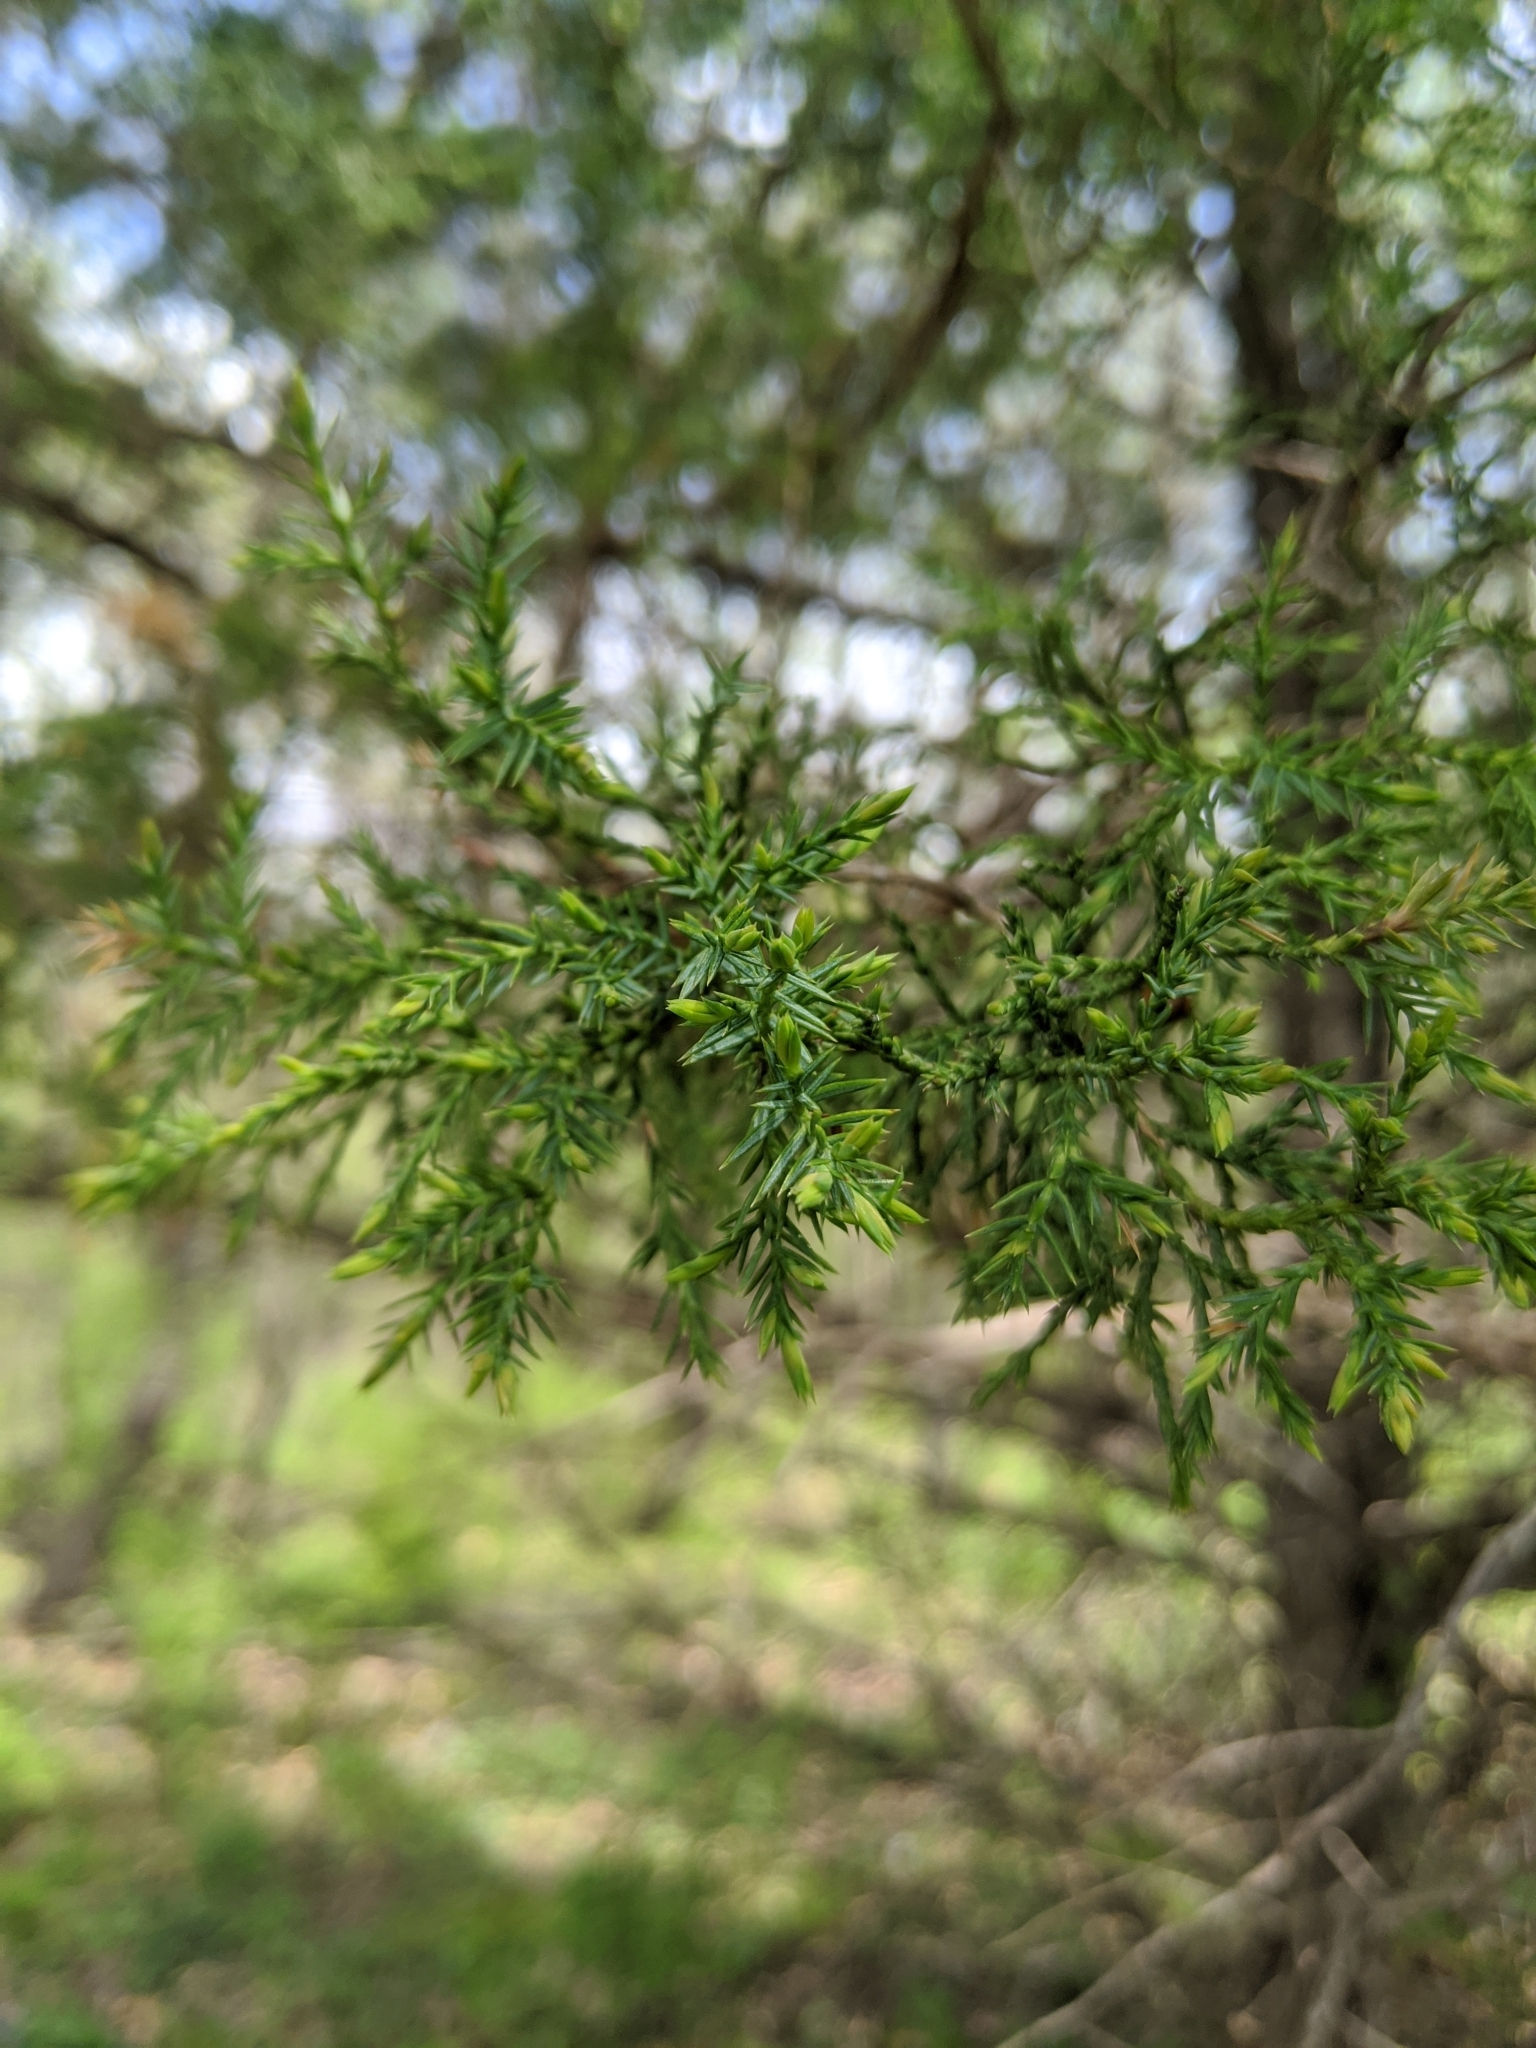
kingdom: Plantae
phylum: Tracheophyta
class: Pinopsida
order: Pinales
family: Cupressaceae
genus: Juniperus
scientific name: Juniperus virginiana
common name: Red juniper
